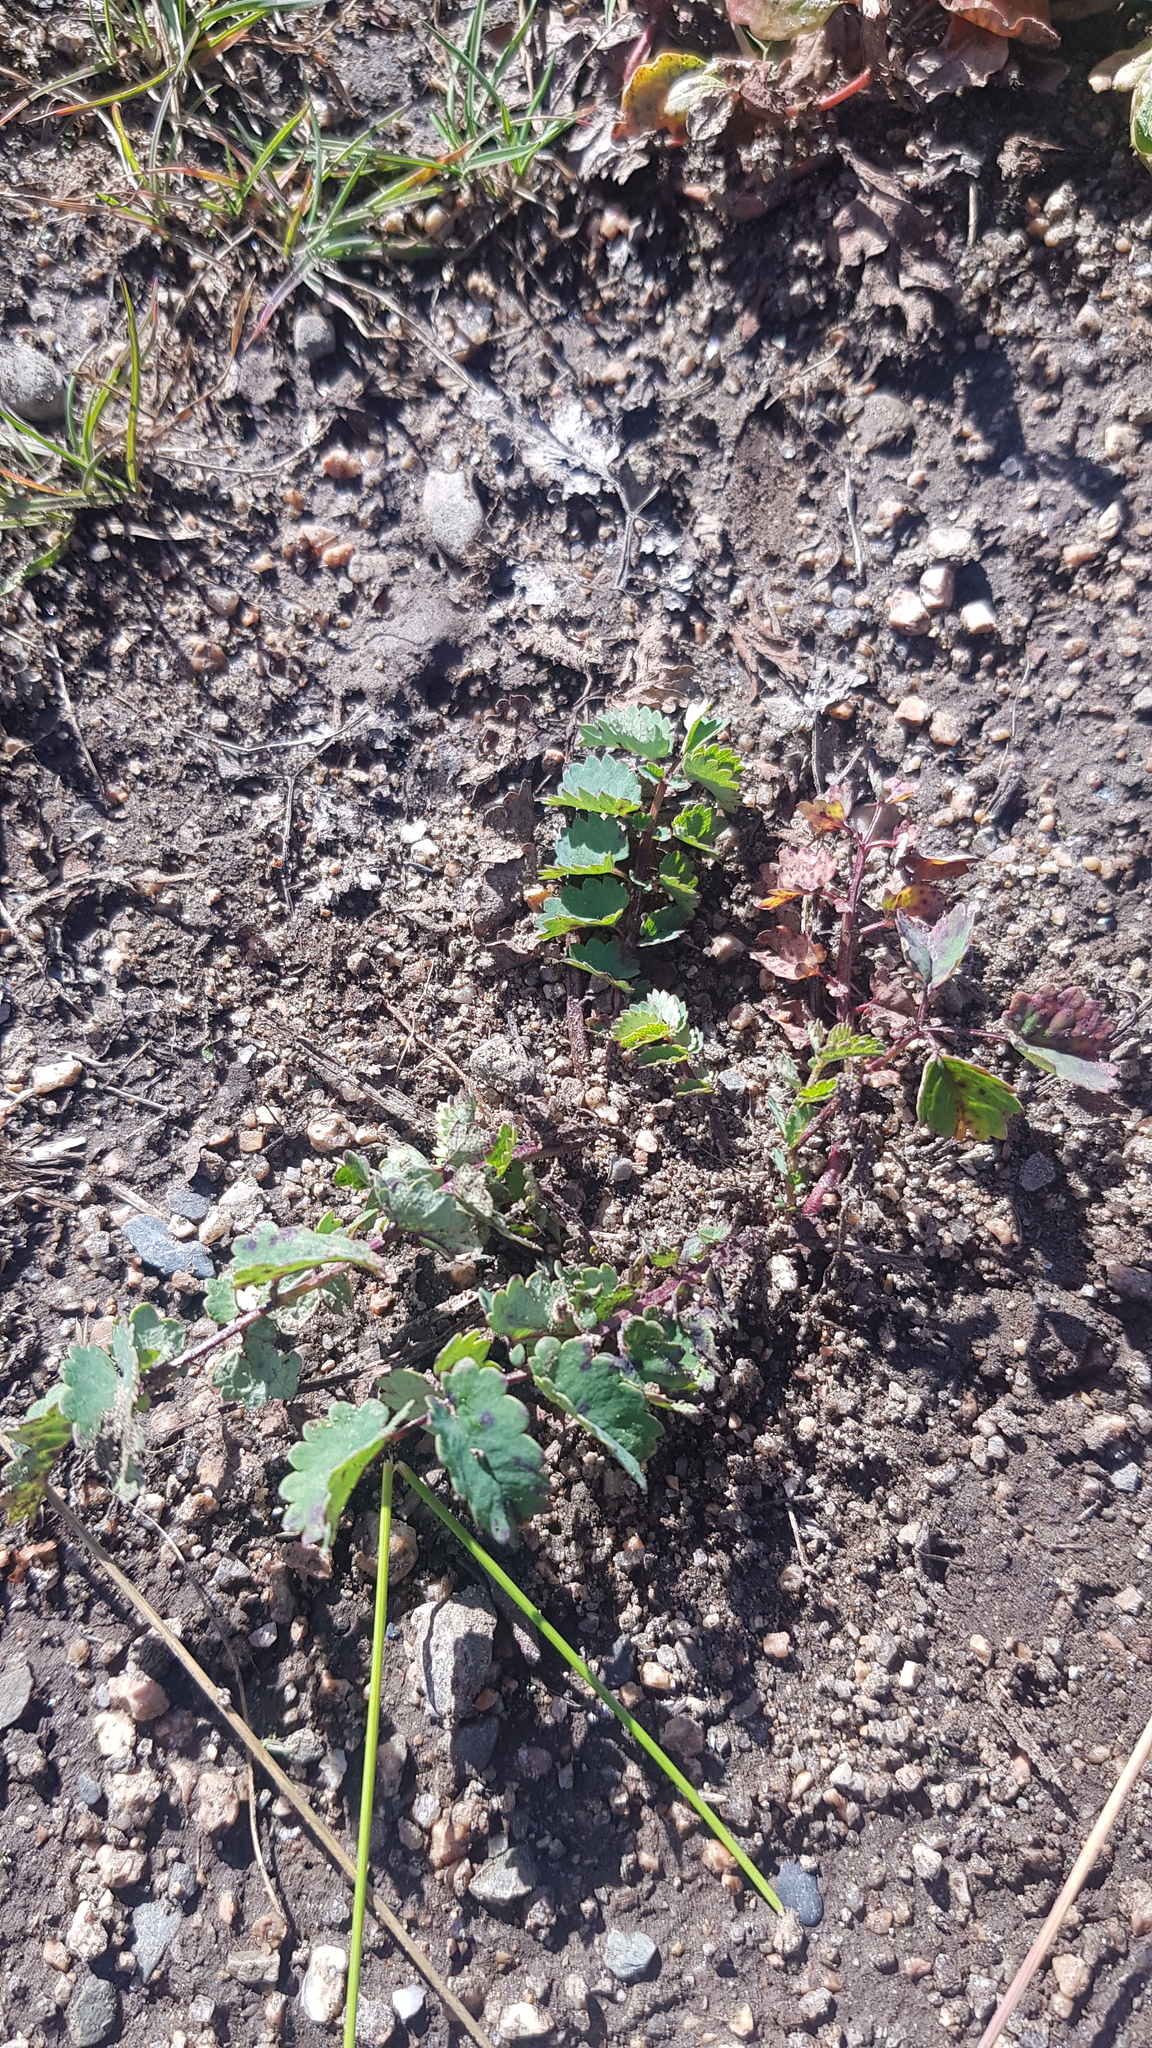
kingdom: Plantae
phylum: Tracheophyta
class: Magnoliopsida
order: Rosales
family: Rosaceae
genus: Sanguisorba
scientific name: Sanguisorba officinalis
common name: Great burnet
